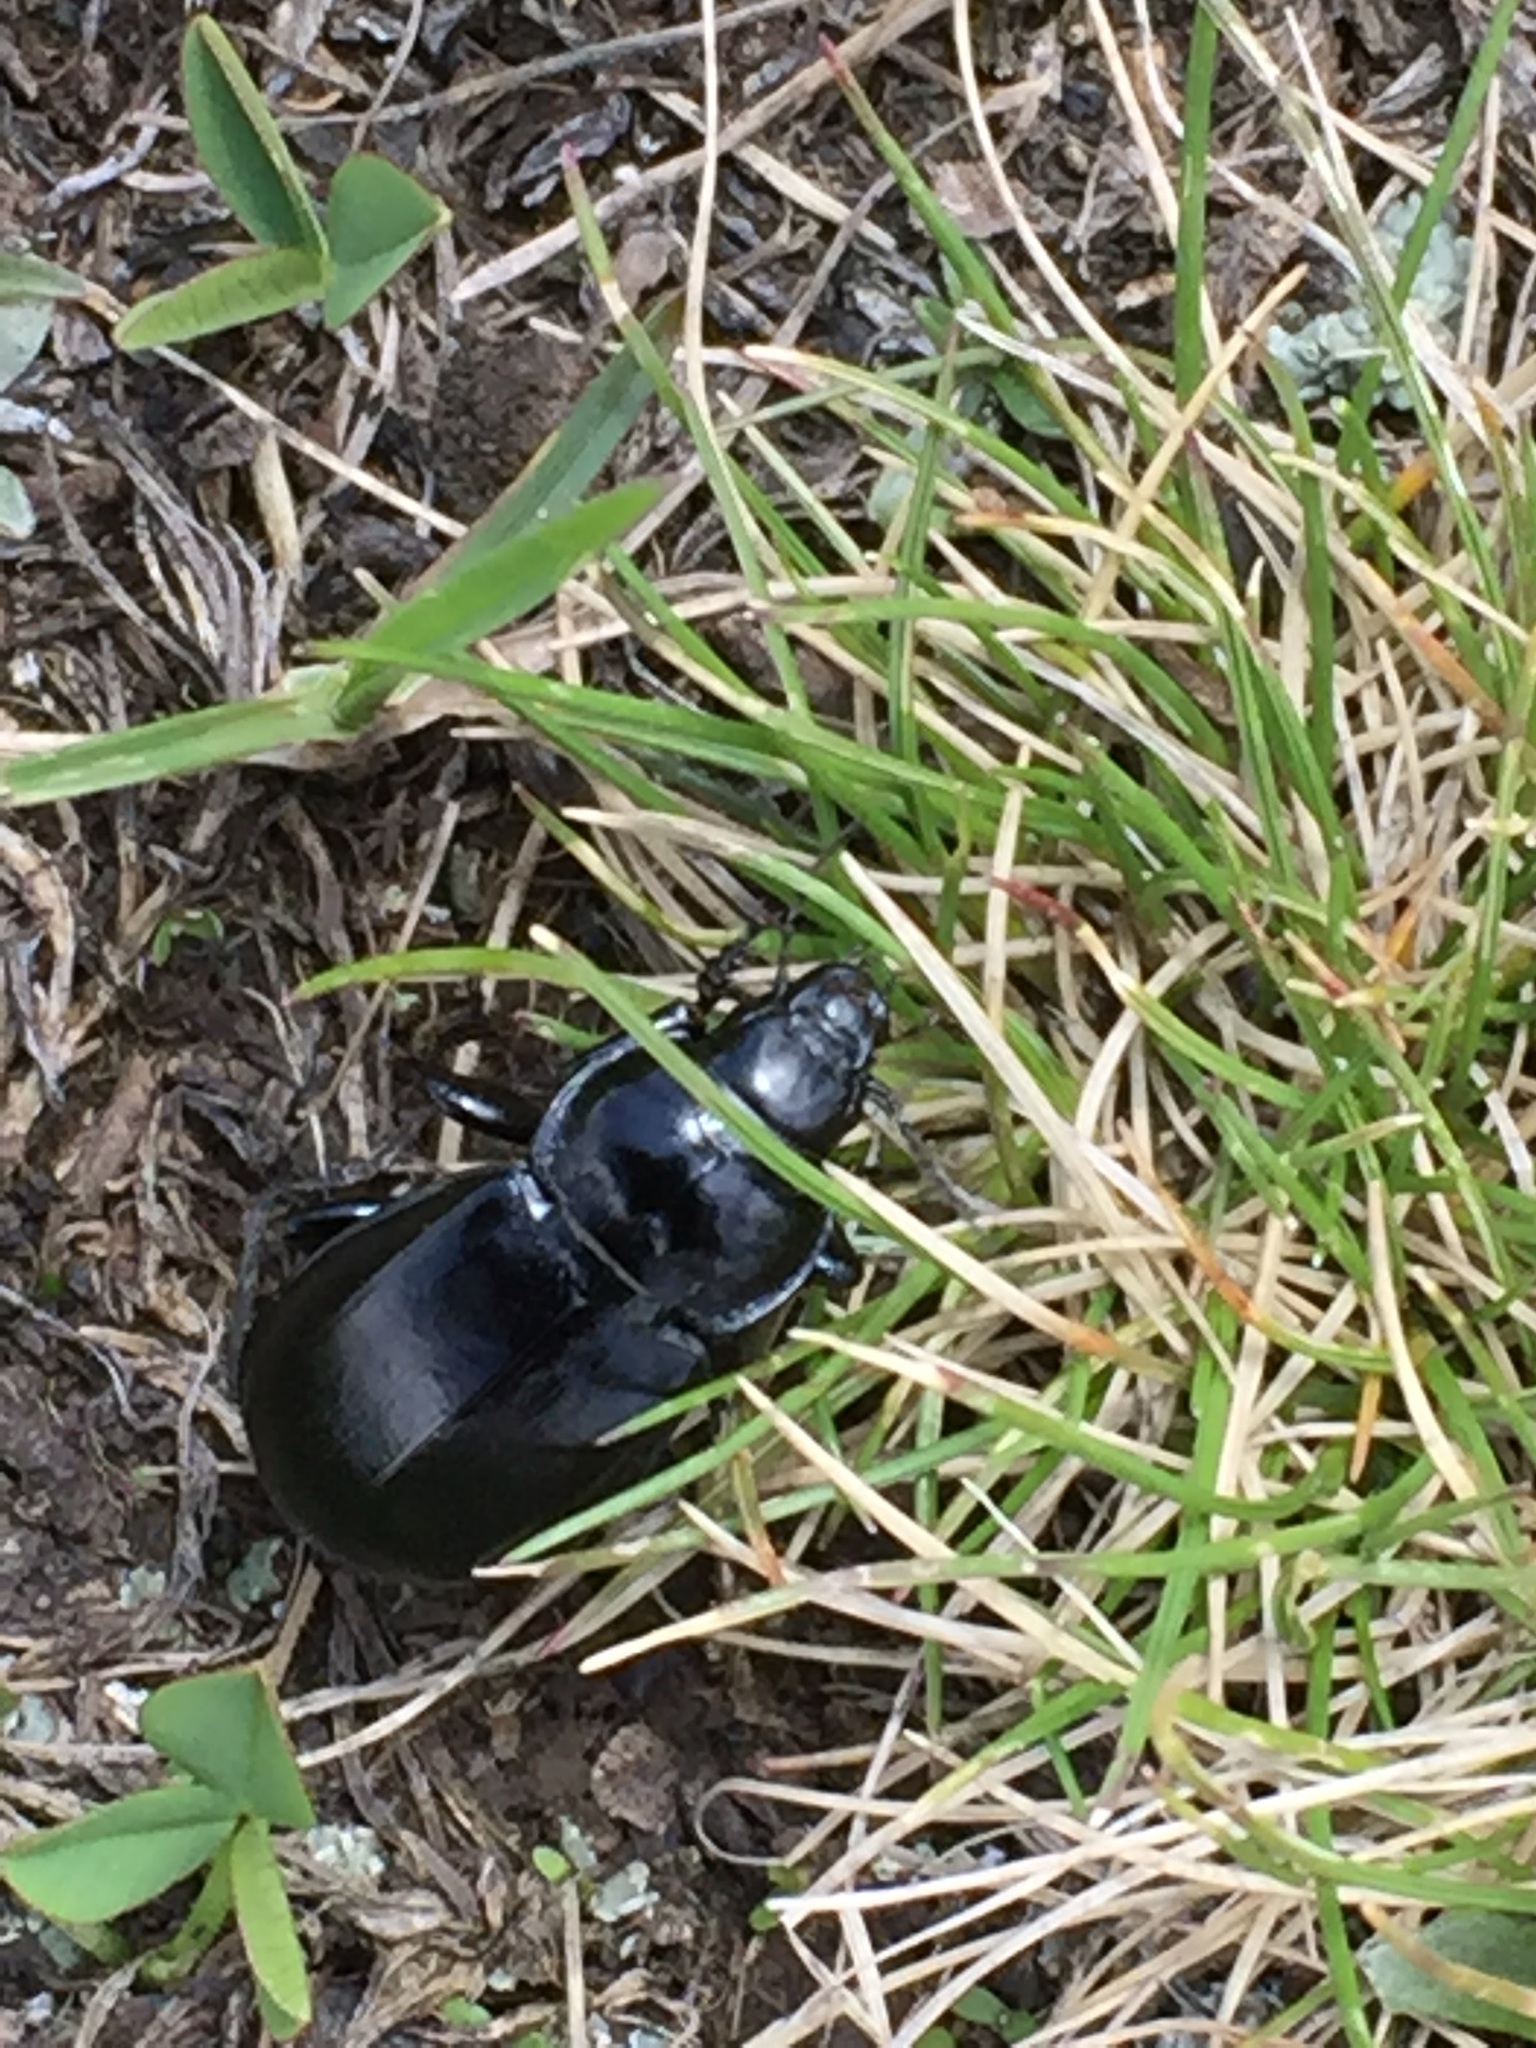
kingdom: Animalia
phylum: Arthropoda
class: Insecta
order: Coleoptera
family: Carabidae
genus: Zabrus
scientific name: Zabrus aurichalceus
